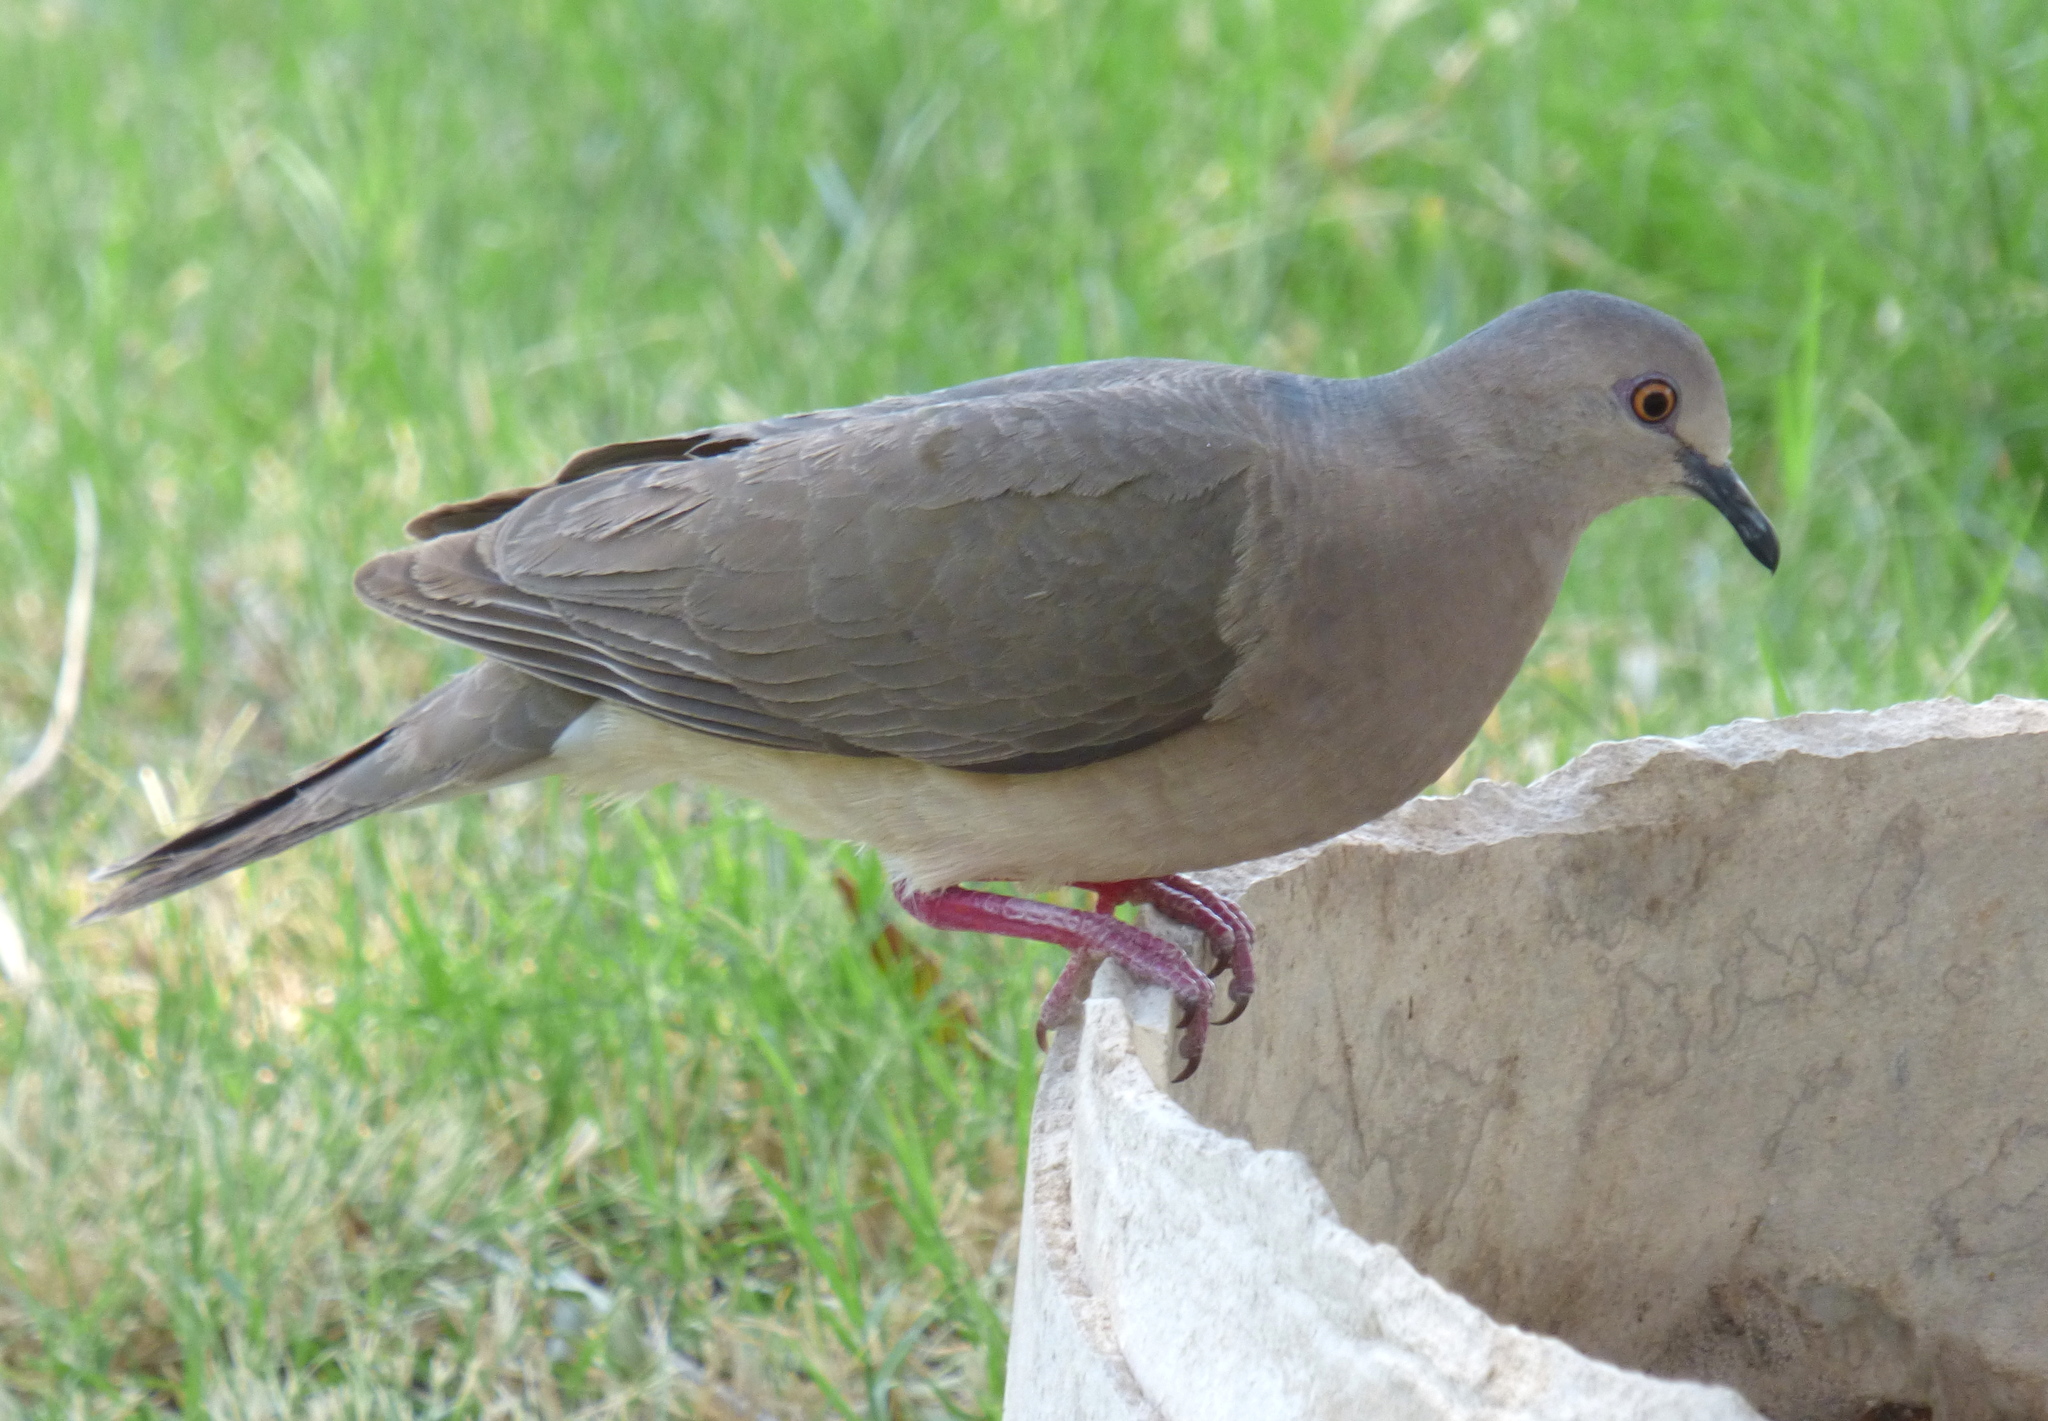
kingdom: Animalia
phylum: Chordata
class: Aves
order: Columbiformes
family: Columbidae
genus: Leptotila
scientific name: Leptotila verreauxi
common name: White-tipped dove
